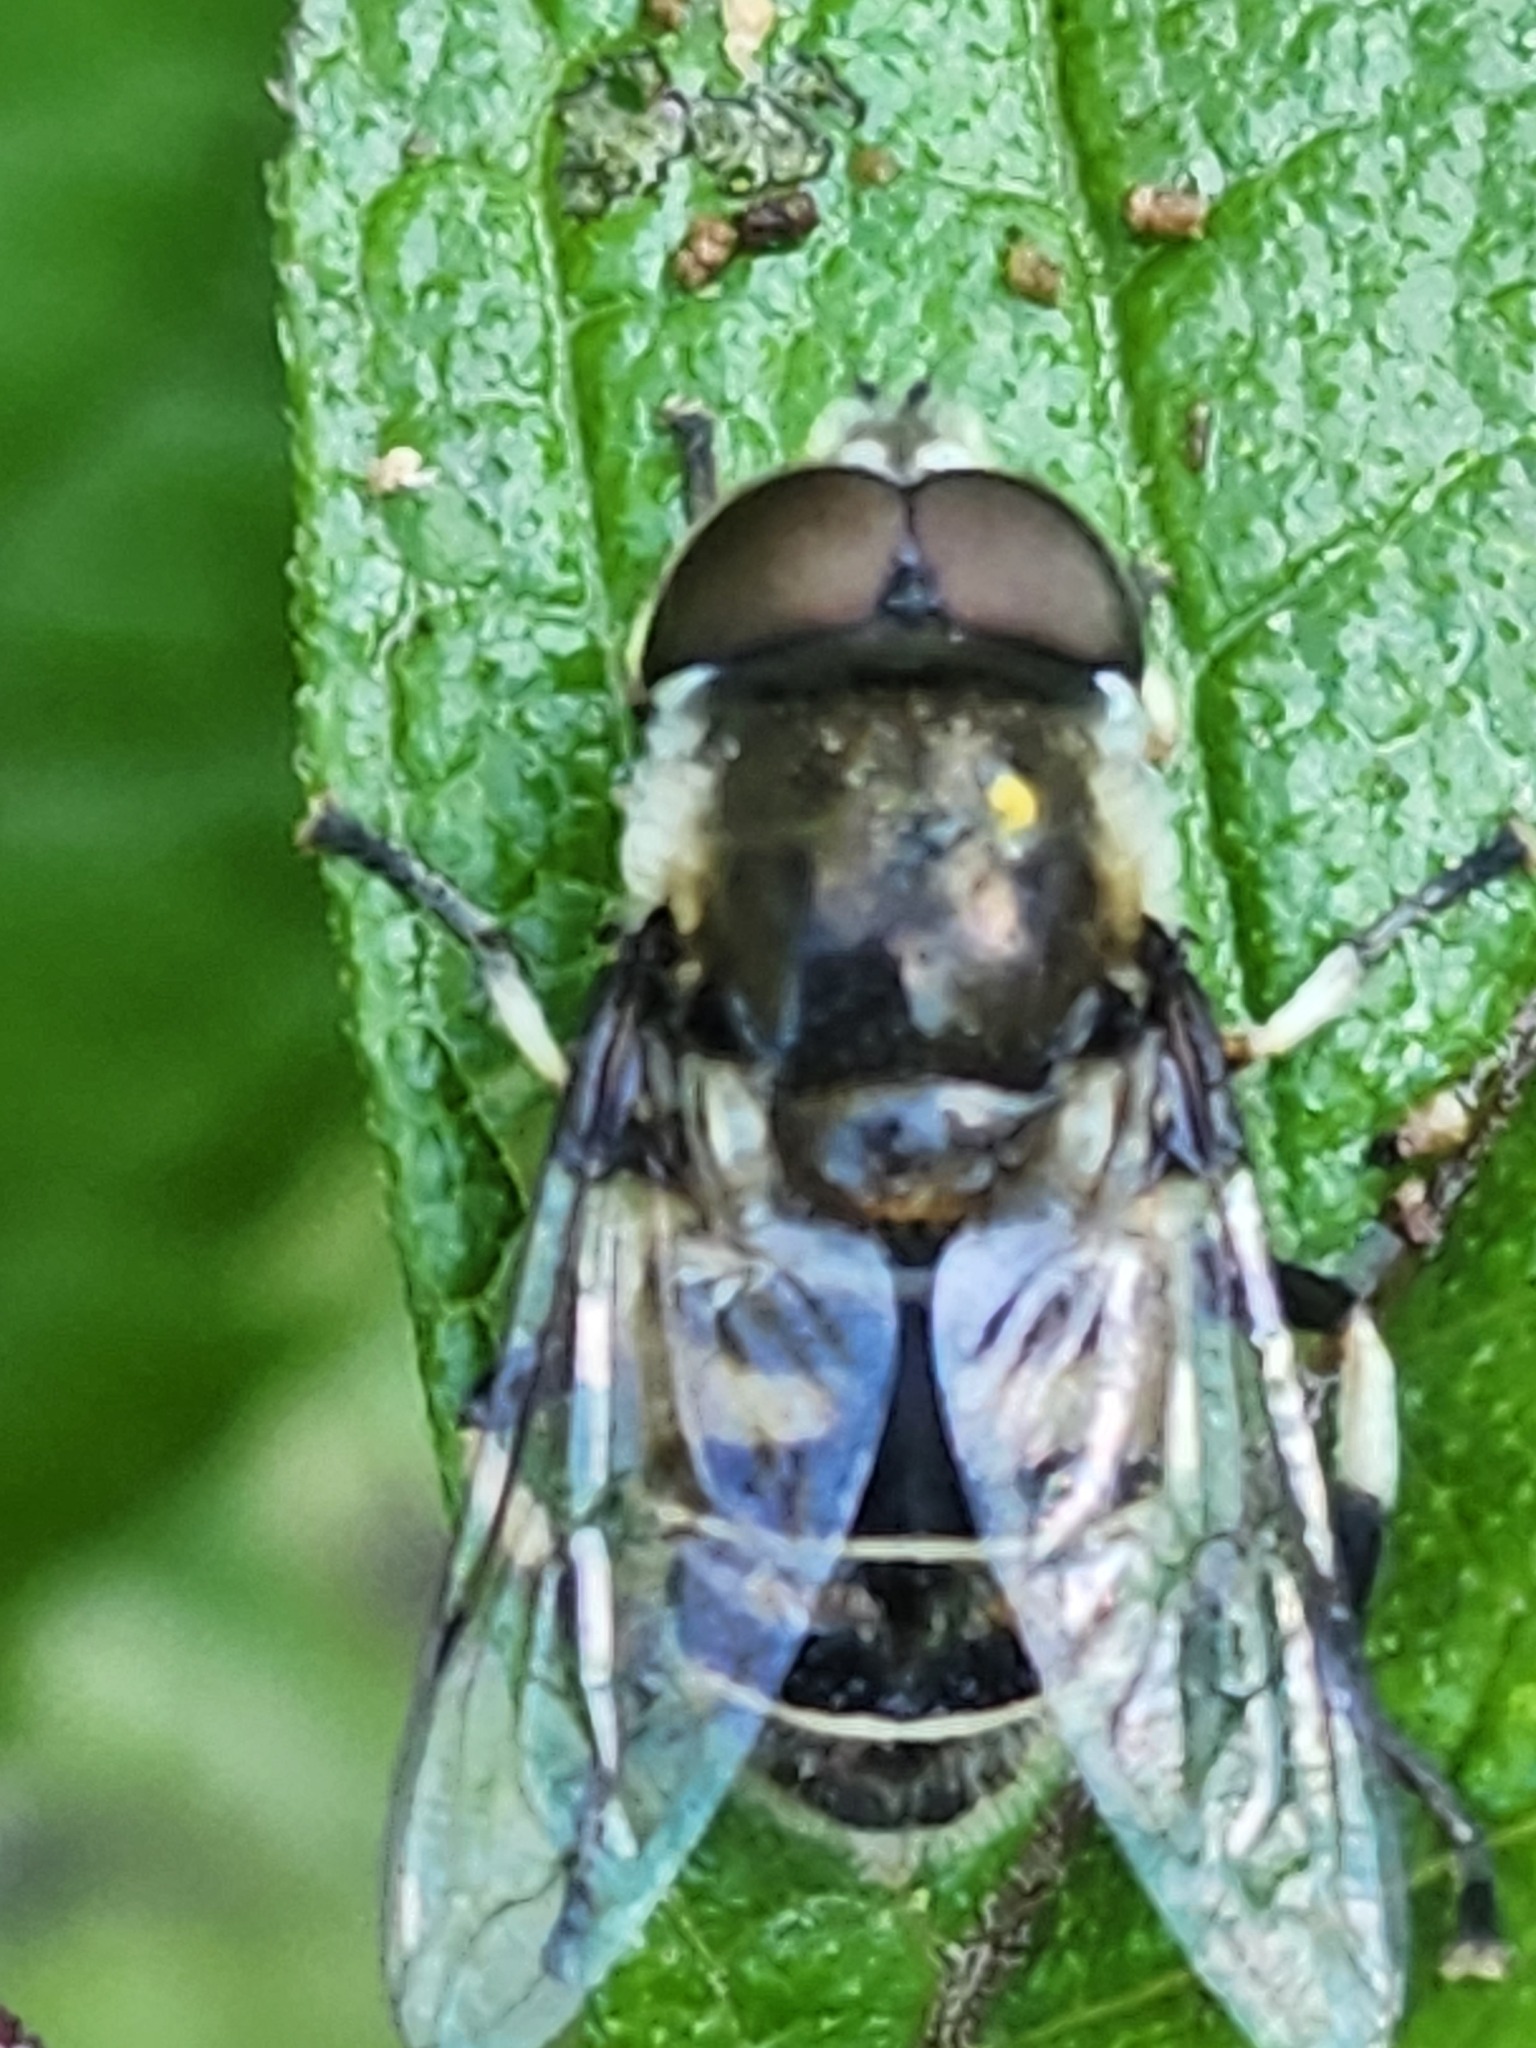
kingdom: Animalia
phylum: Arthropoda
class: Insecta
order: Diptera
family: Syrphidae
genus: Eristalis
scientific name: Eristalis dimidiata
